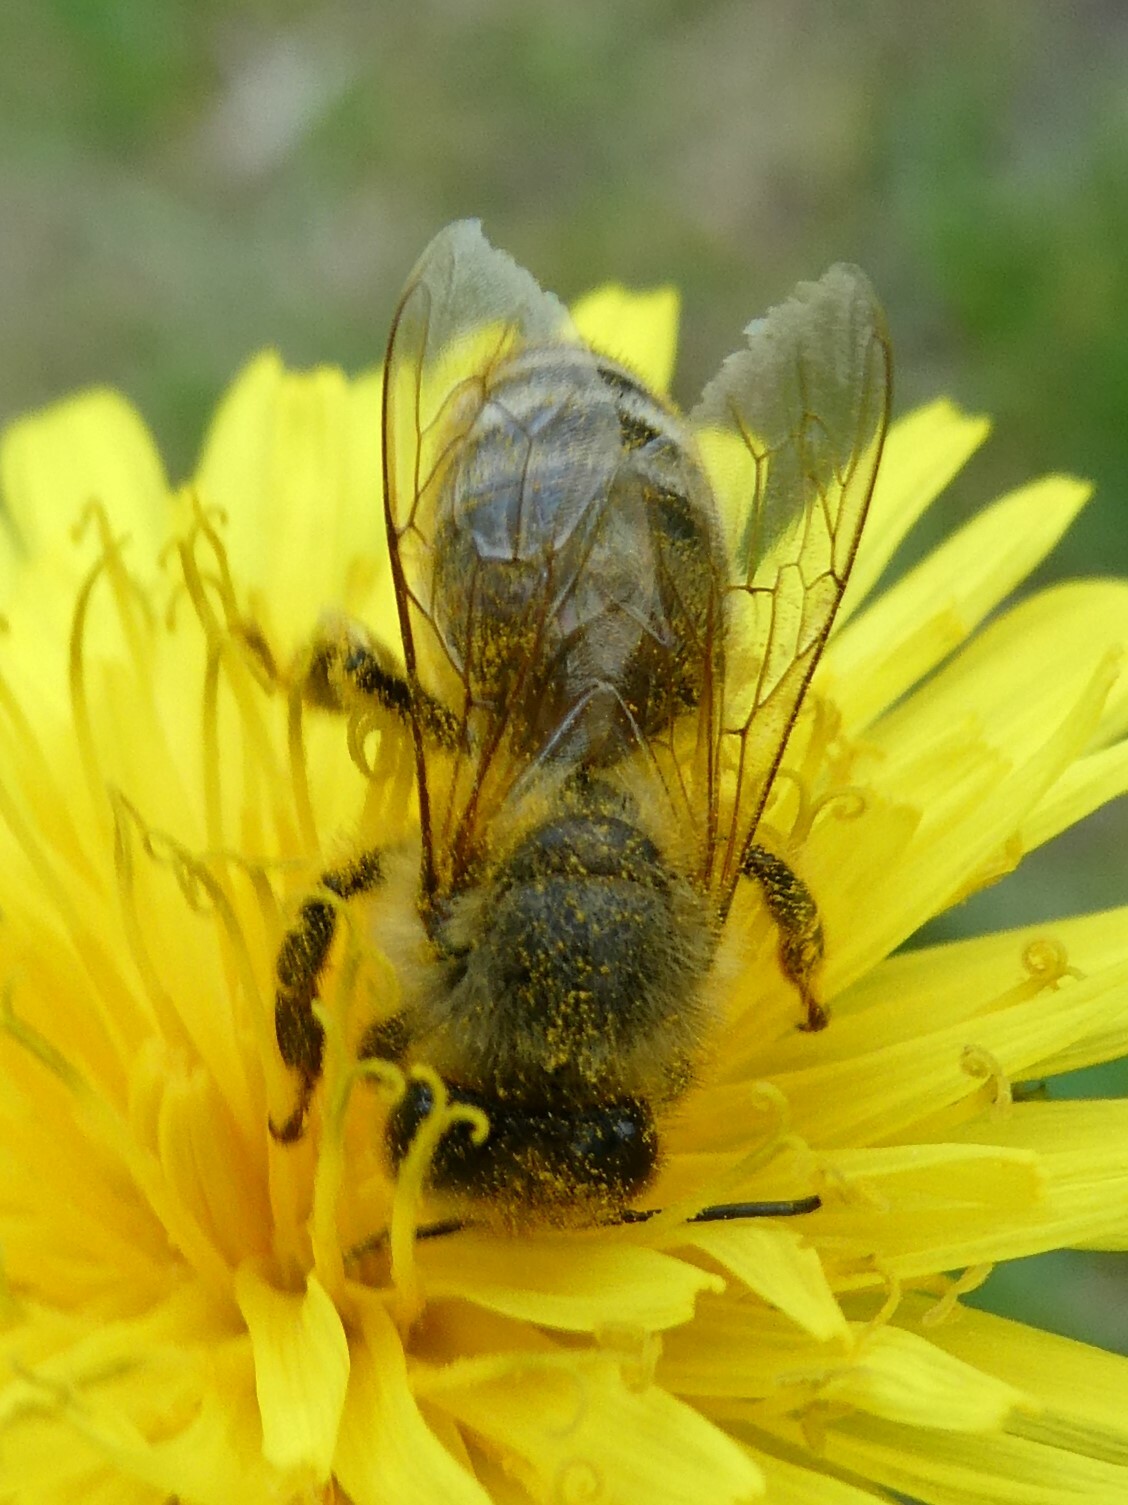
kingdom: Animalia
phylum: Arthropoda
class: Insecta
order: Hymenoptera
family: Apidae
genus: Apis
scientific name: Apis mellifera
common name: Honey bee
